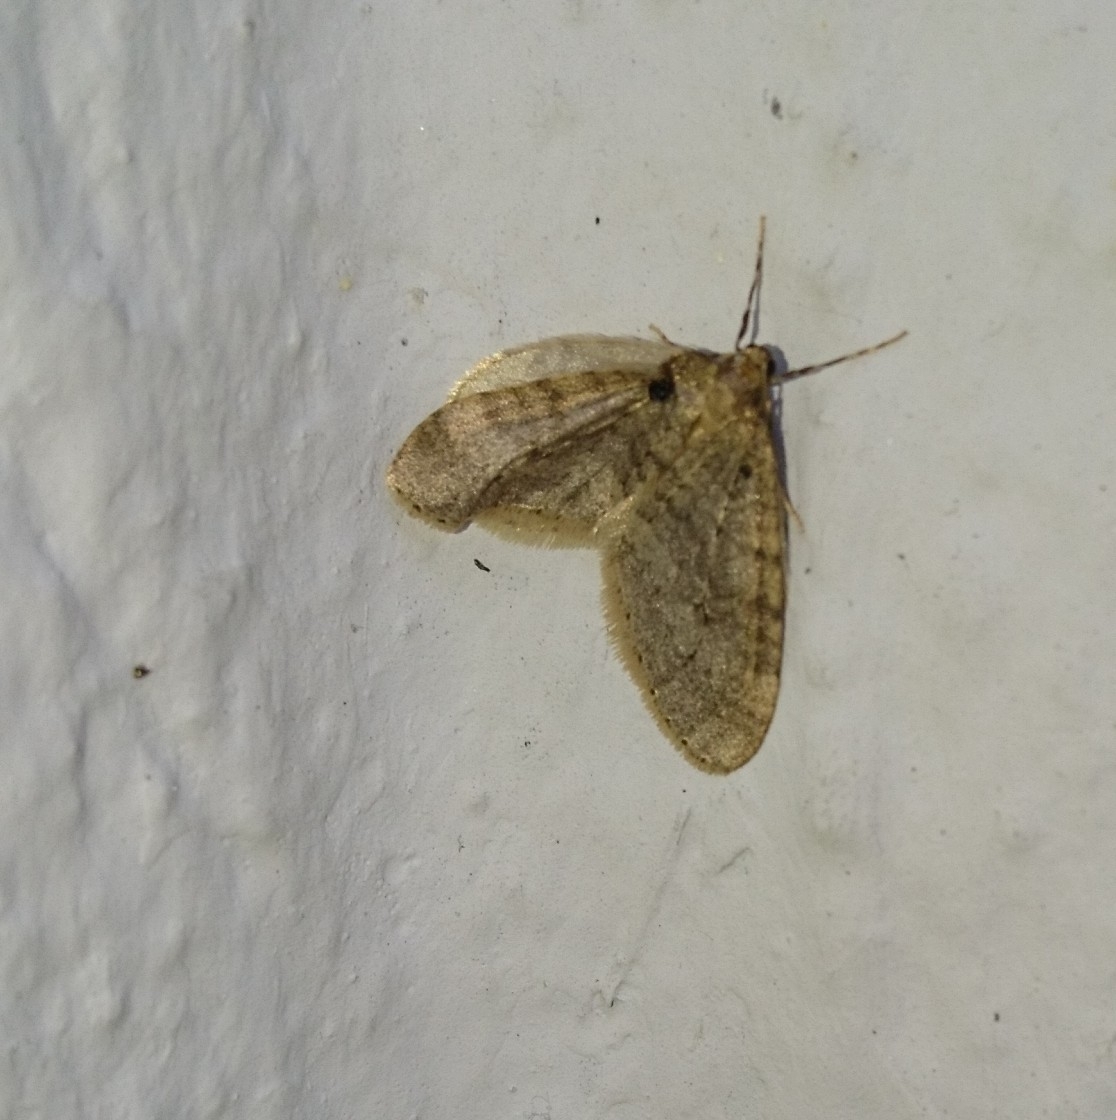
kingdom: Animalia
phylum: Arthropoda
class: Insecta
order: Lepidoptera
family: Geometridae
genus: Operophtera
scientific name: Operophtera brumata
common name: Winter moth
